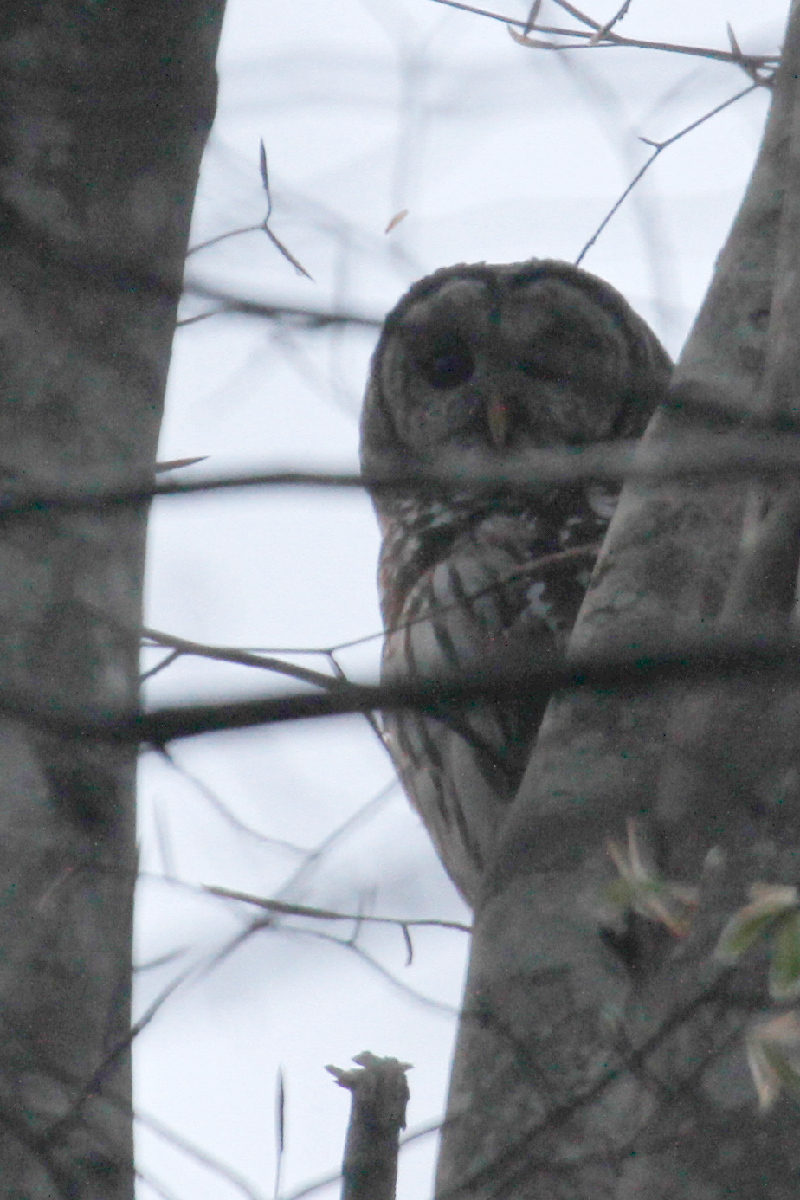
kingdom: Animalia
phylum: Chordata
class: Aves
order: Strigiformes
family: Strigidae
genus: Strix
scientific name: Strix varia
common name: Barred owl
